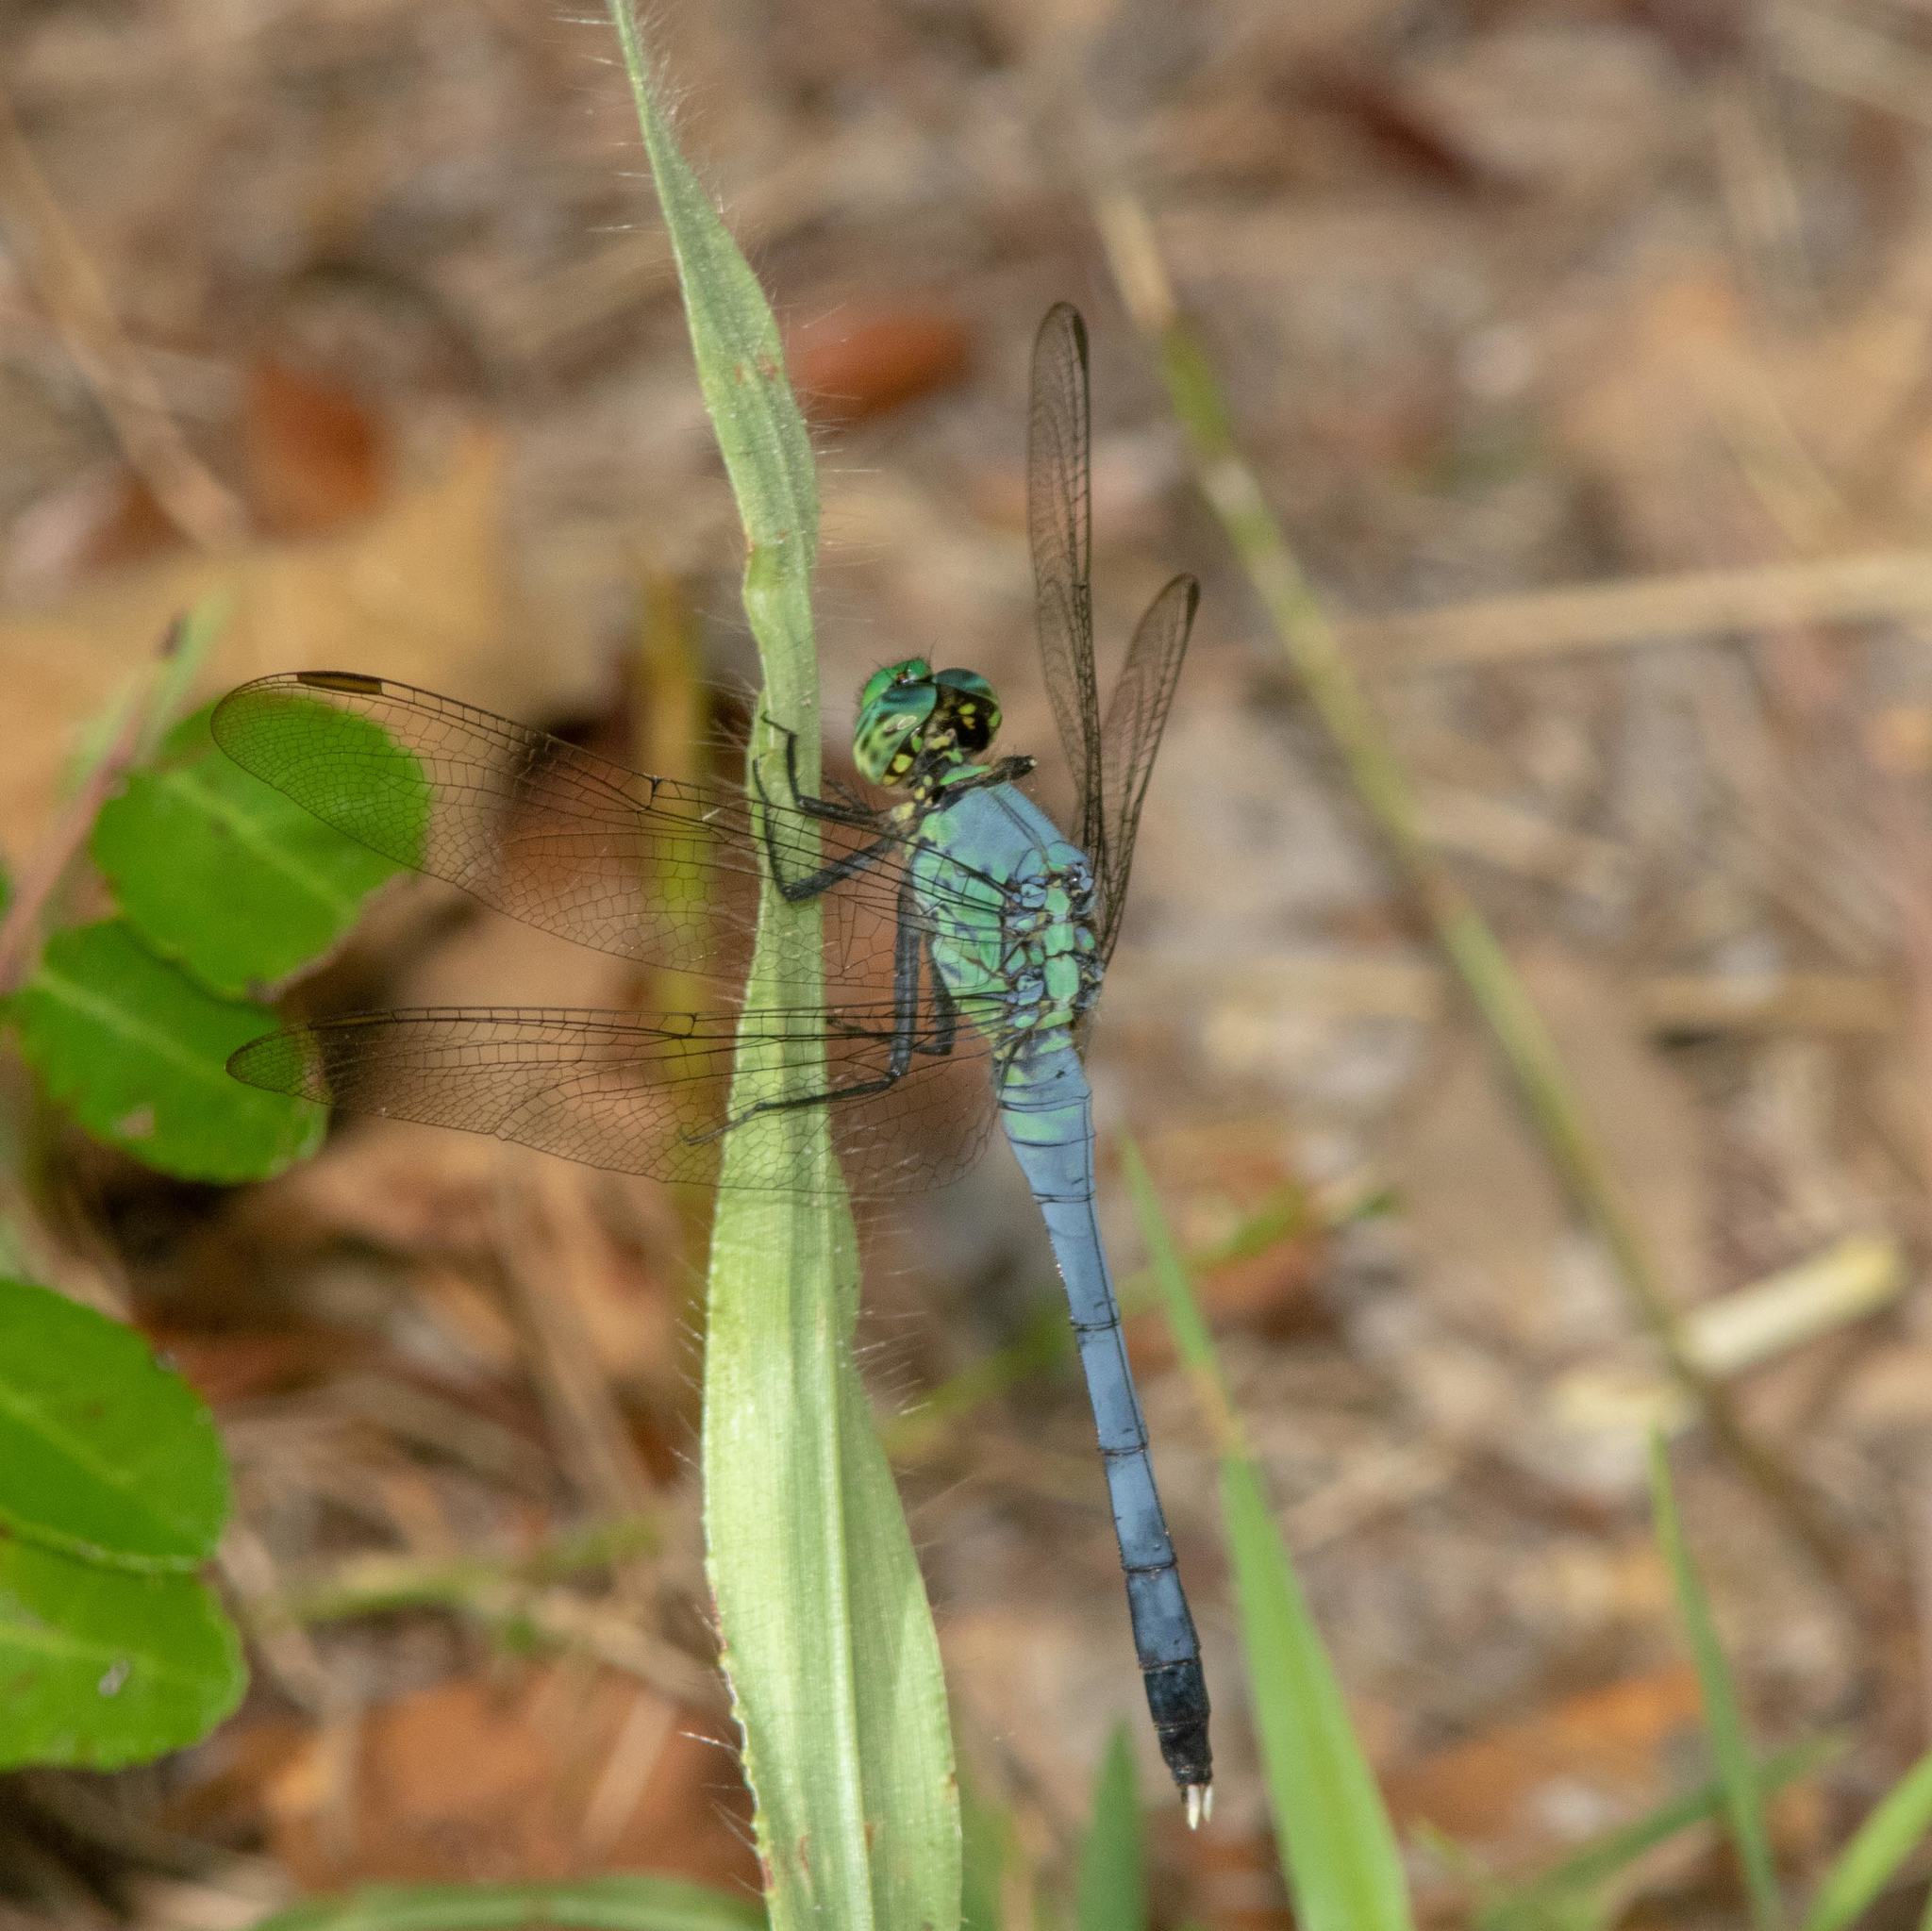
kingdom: Animalia
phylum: Arthropoda
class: Insecta
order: Odonata
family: Libellulidae
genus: Erythemis
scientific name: Erythemis simplicicollis
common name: Eastern pondhawk
